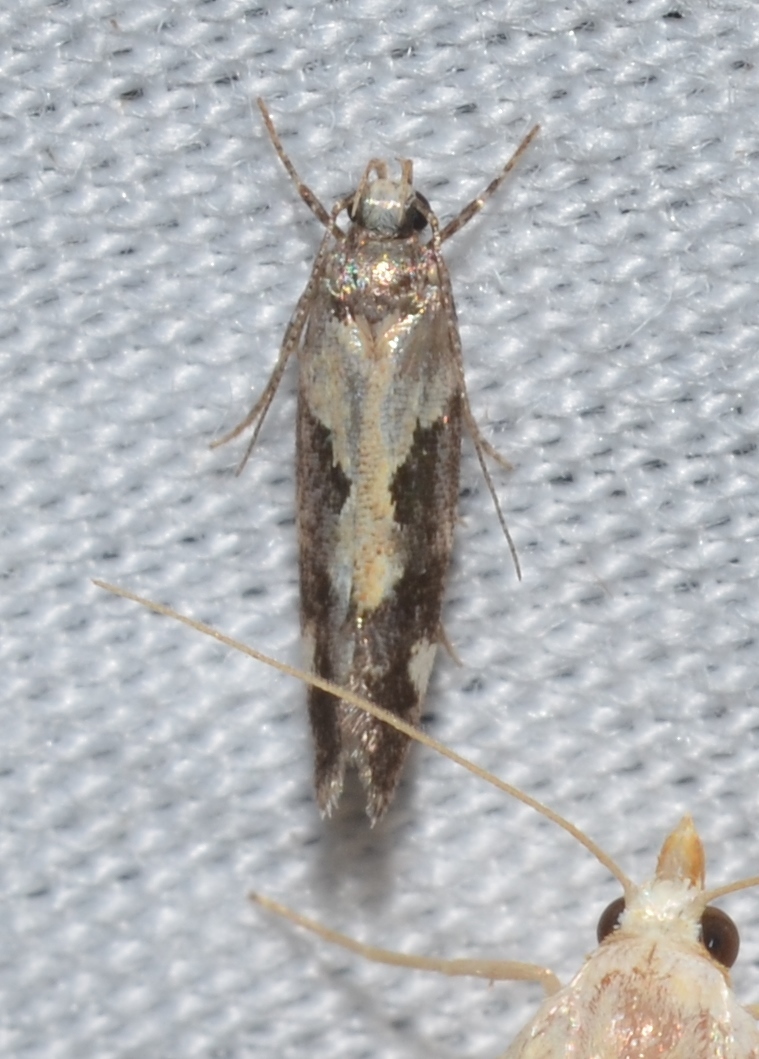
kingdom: Animalia
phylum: Arthropoda
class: Insecta
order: Lepidoptera
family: Gelechiidae
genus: Stegasta
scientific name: Stegasta bosqueella
